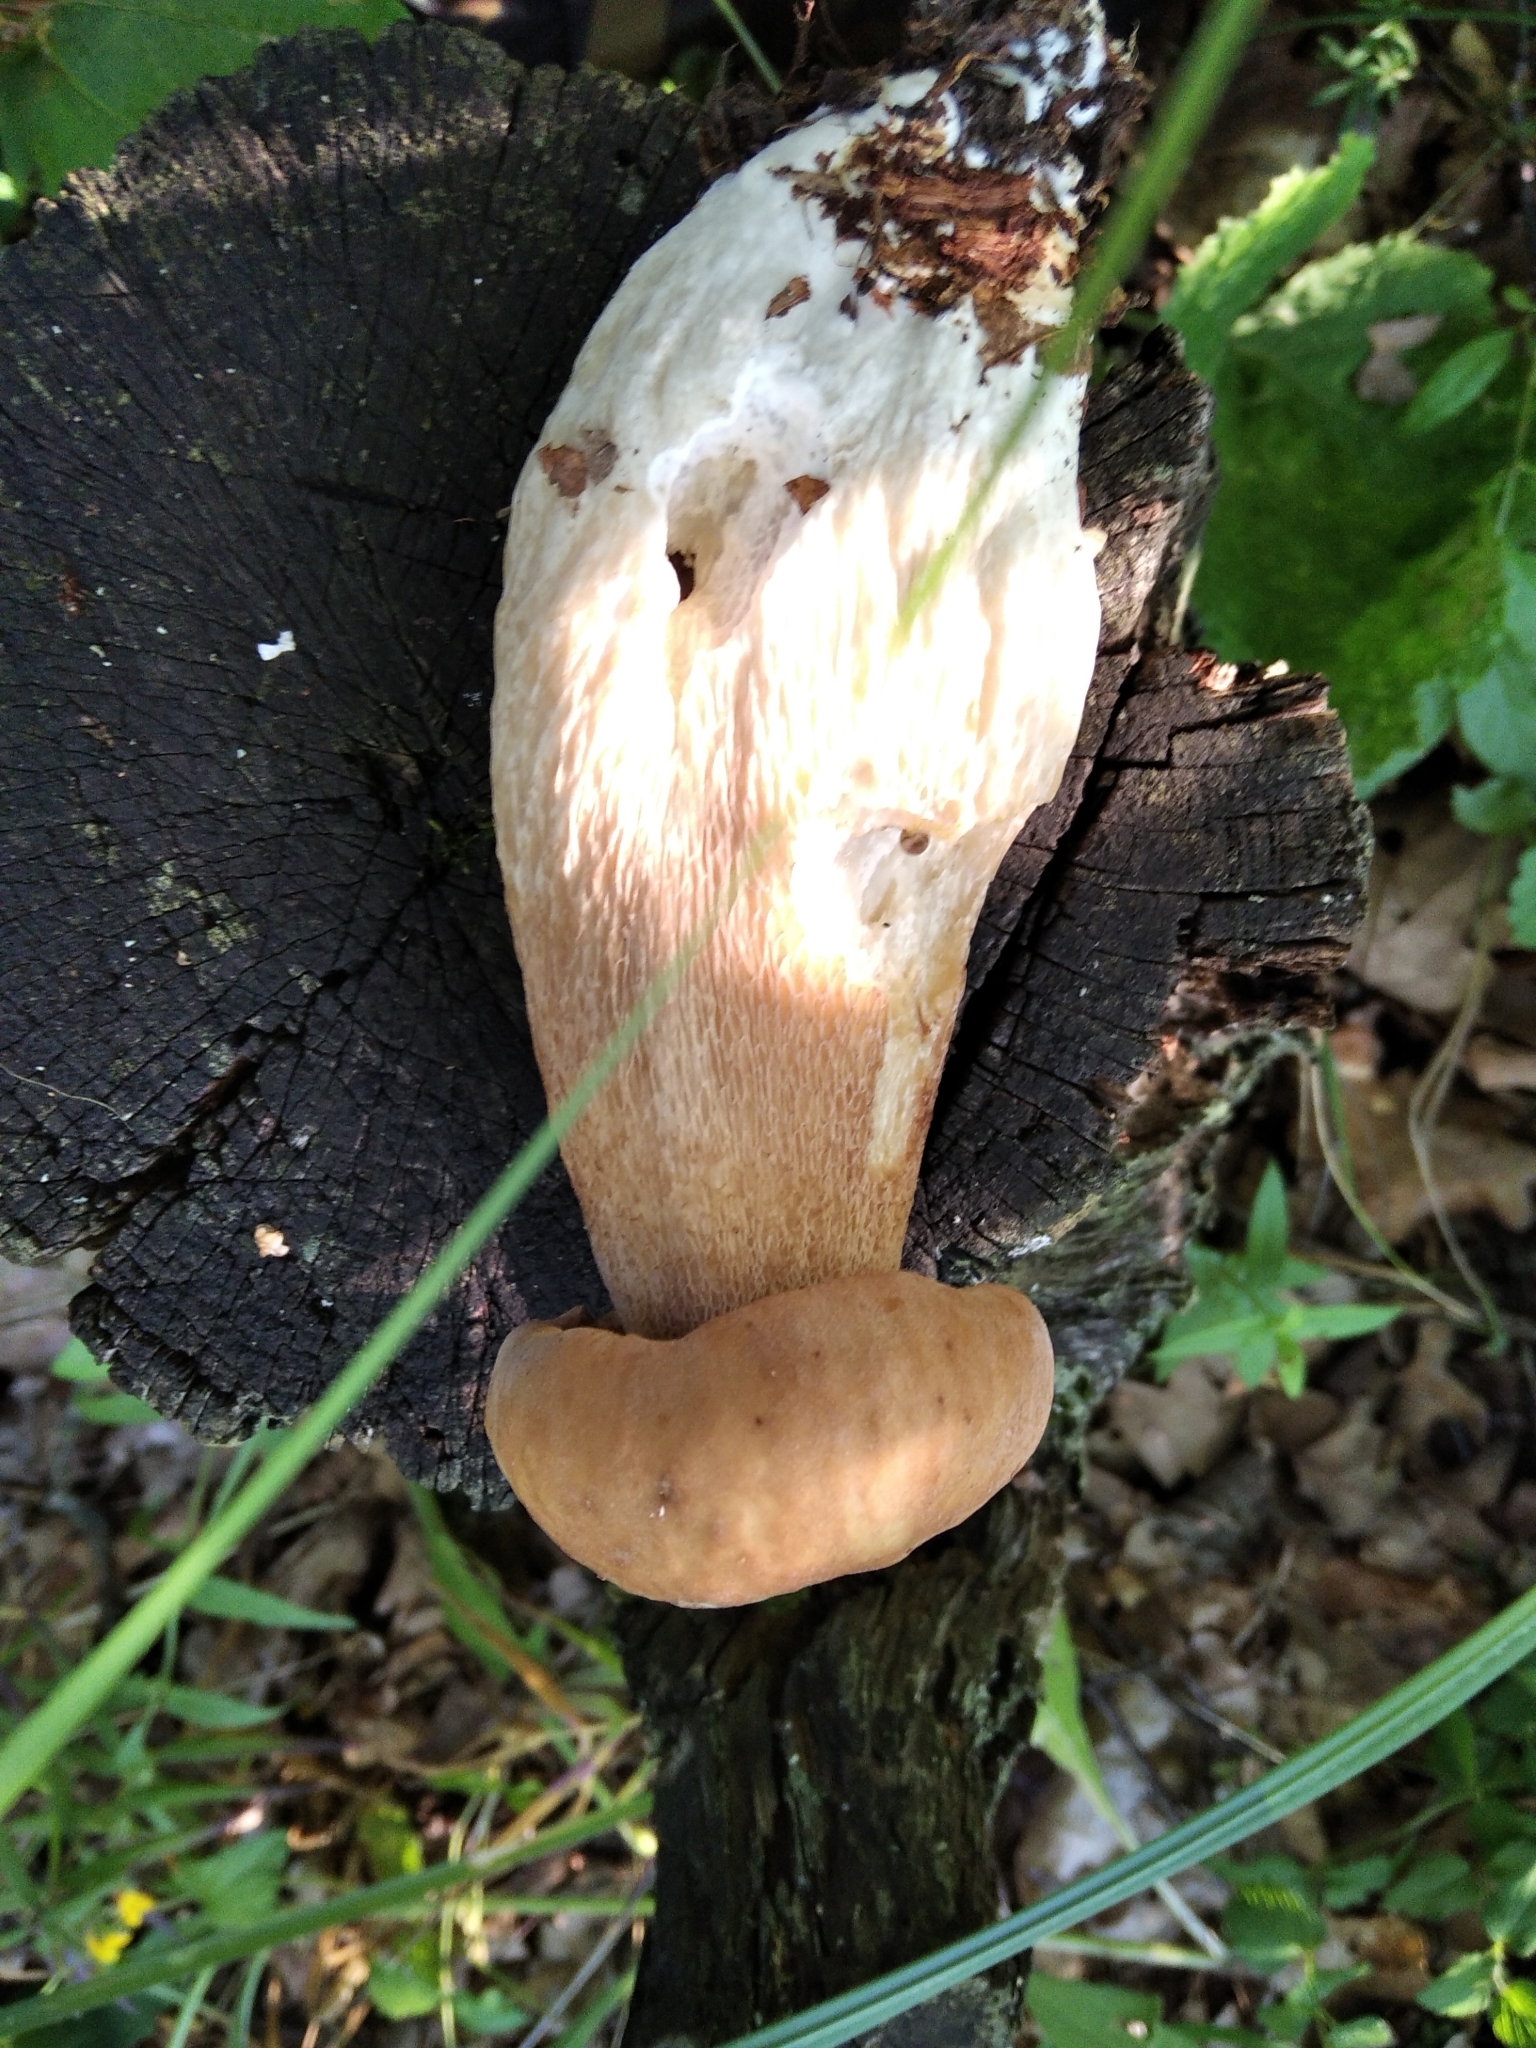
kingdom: Fungi
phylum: Basidiomycota
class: Agaricomycetes
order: Boletales
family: Boletaceae
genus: Boletus
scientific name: Boletus reticulatus
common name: Summer bolete
